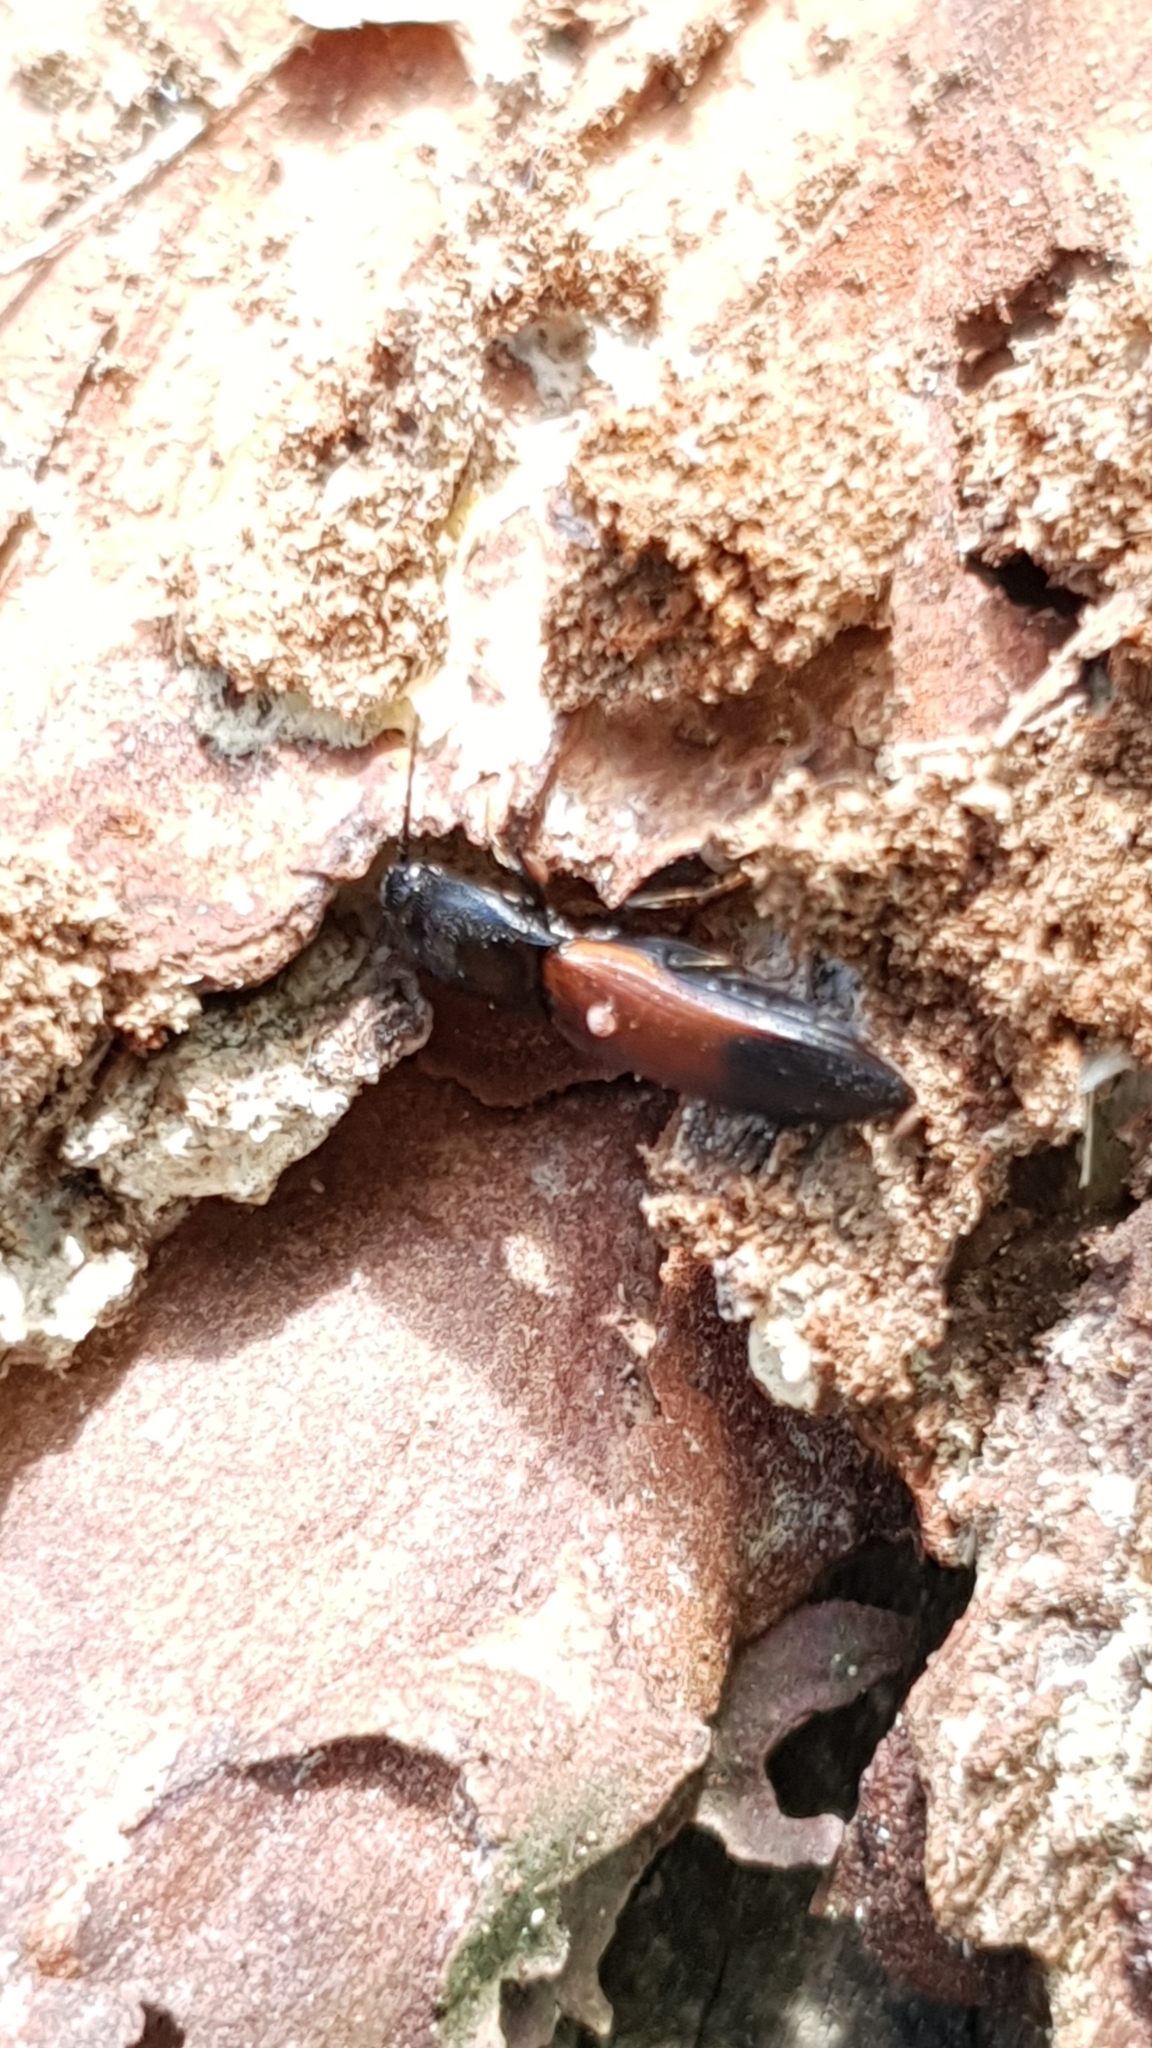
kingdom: Animalia
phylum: Arthropoda
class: Insecta
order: Coleoptera
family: Elateridae
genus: Ampedus
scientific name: Ampedus balteatus
